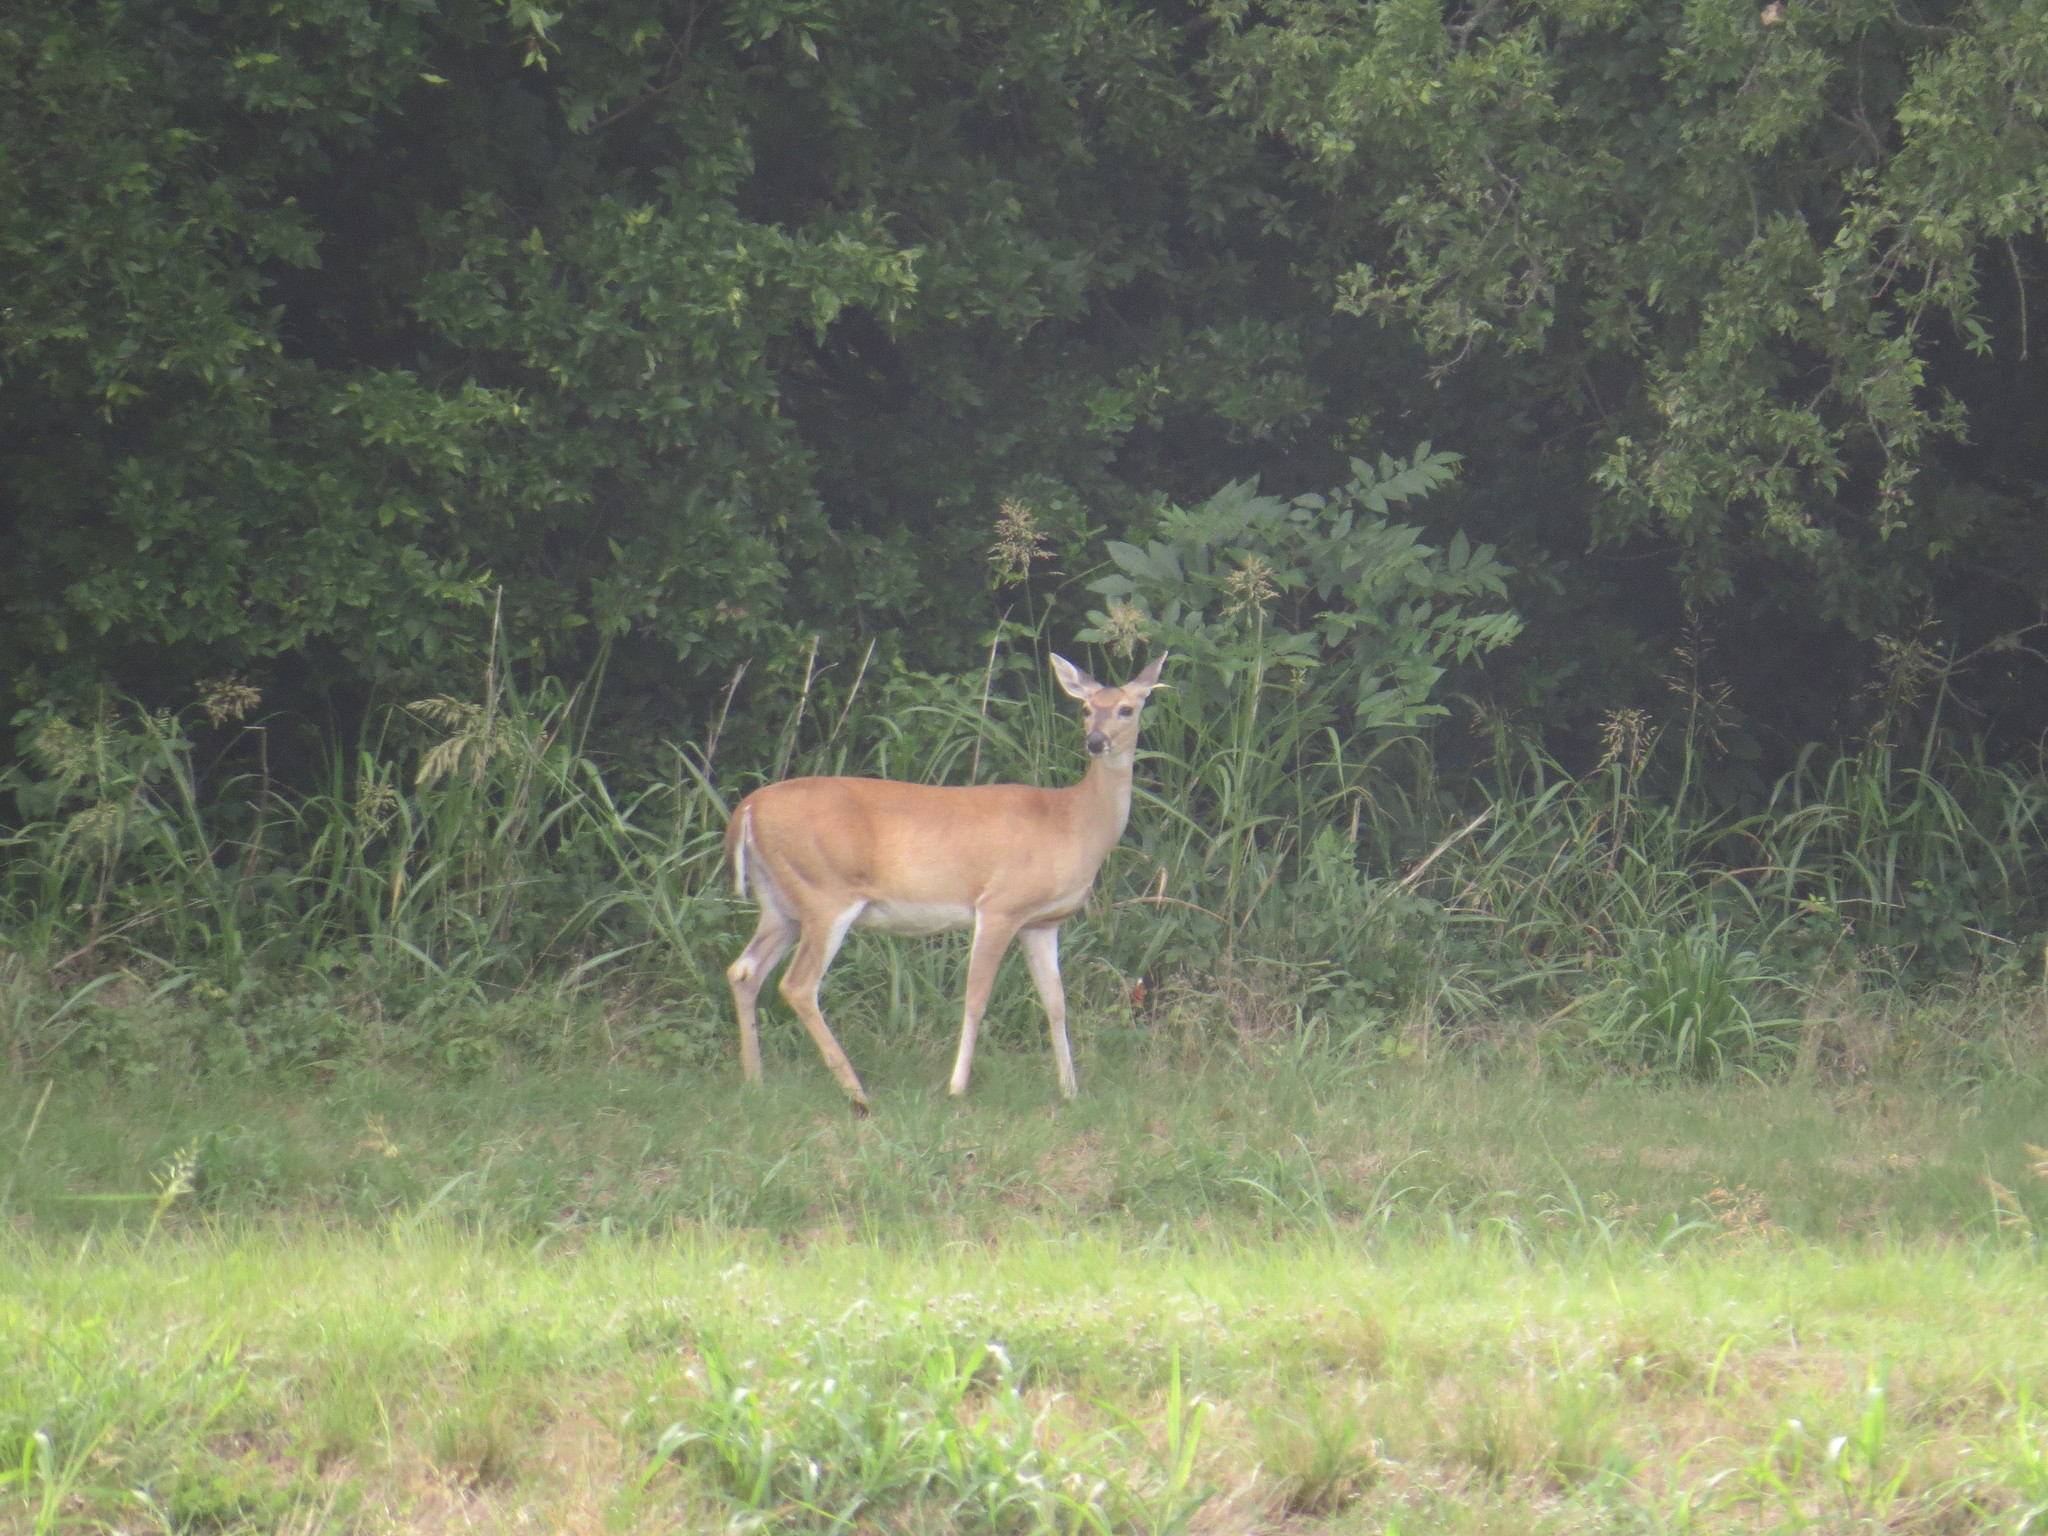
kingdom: Animalia
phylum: Chordata
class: Mammalia
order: Artiodactyla
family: Cervidae
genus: Odocoileus
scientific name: Odocoileus virginianus
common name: White-tailed deer
